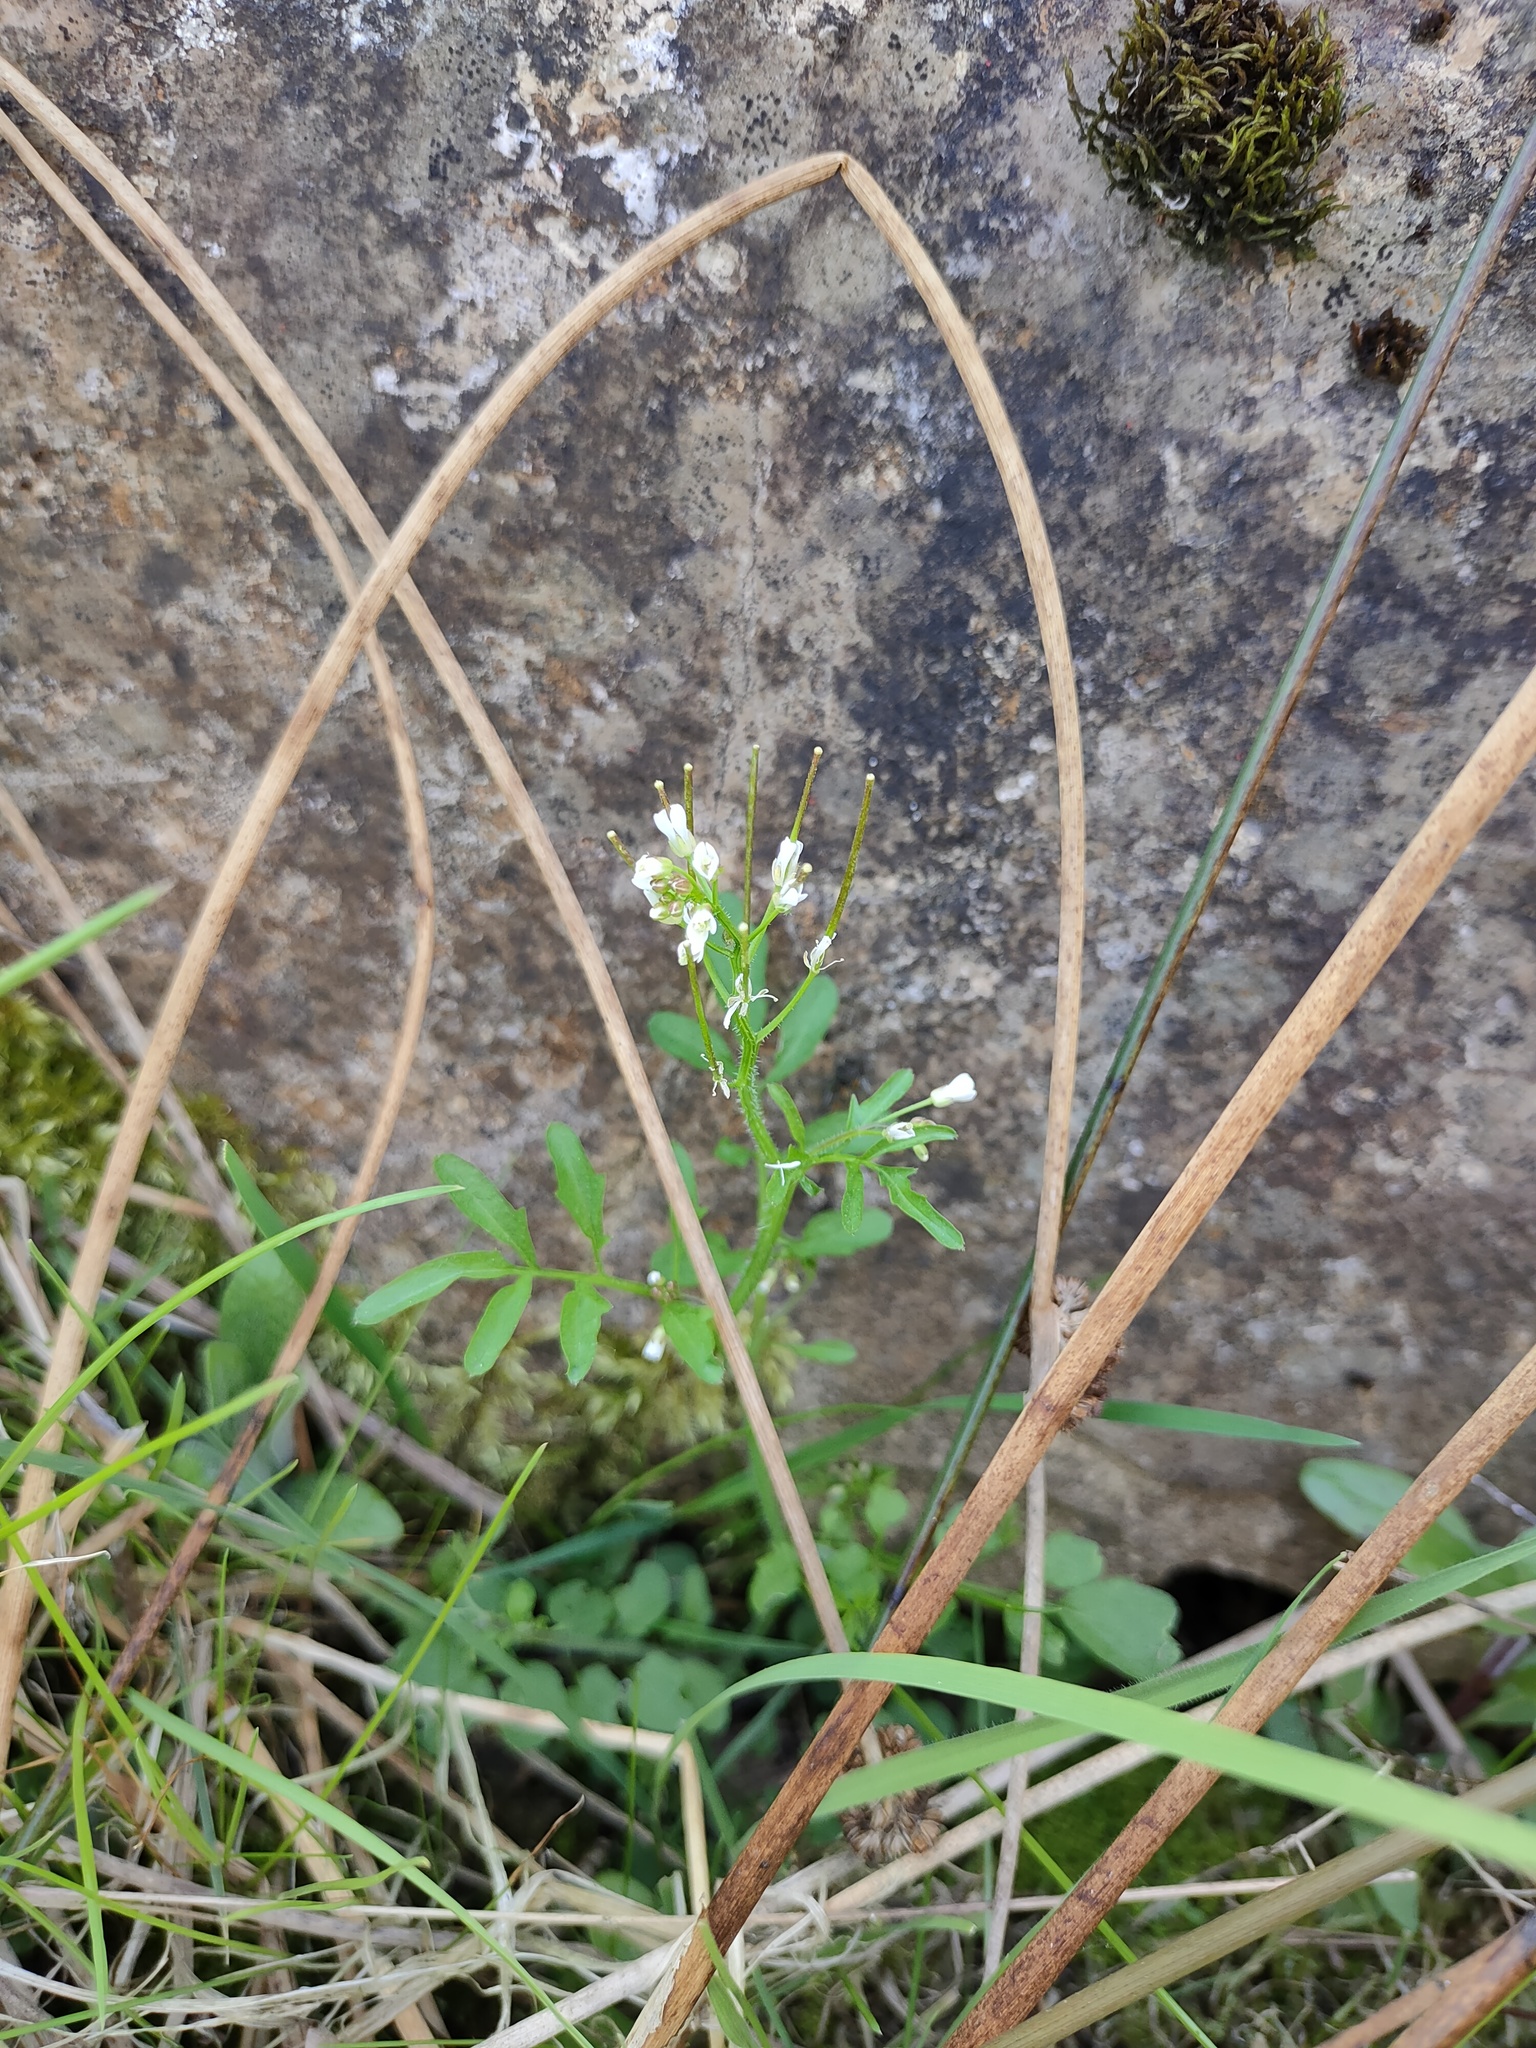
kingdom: Plantae
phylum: Tracheophyta
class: Magnoliopsida
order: Brassicales
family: Brassicaceae
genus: Cardamine
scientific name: Cardamine flexuosa
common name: Woodland bittercress
